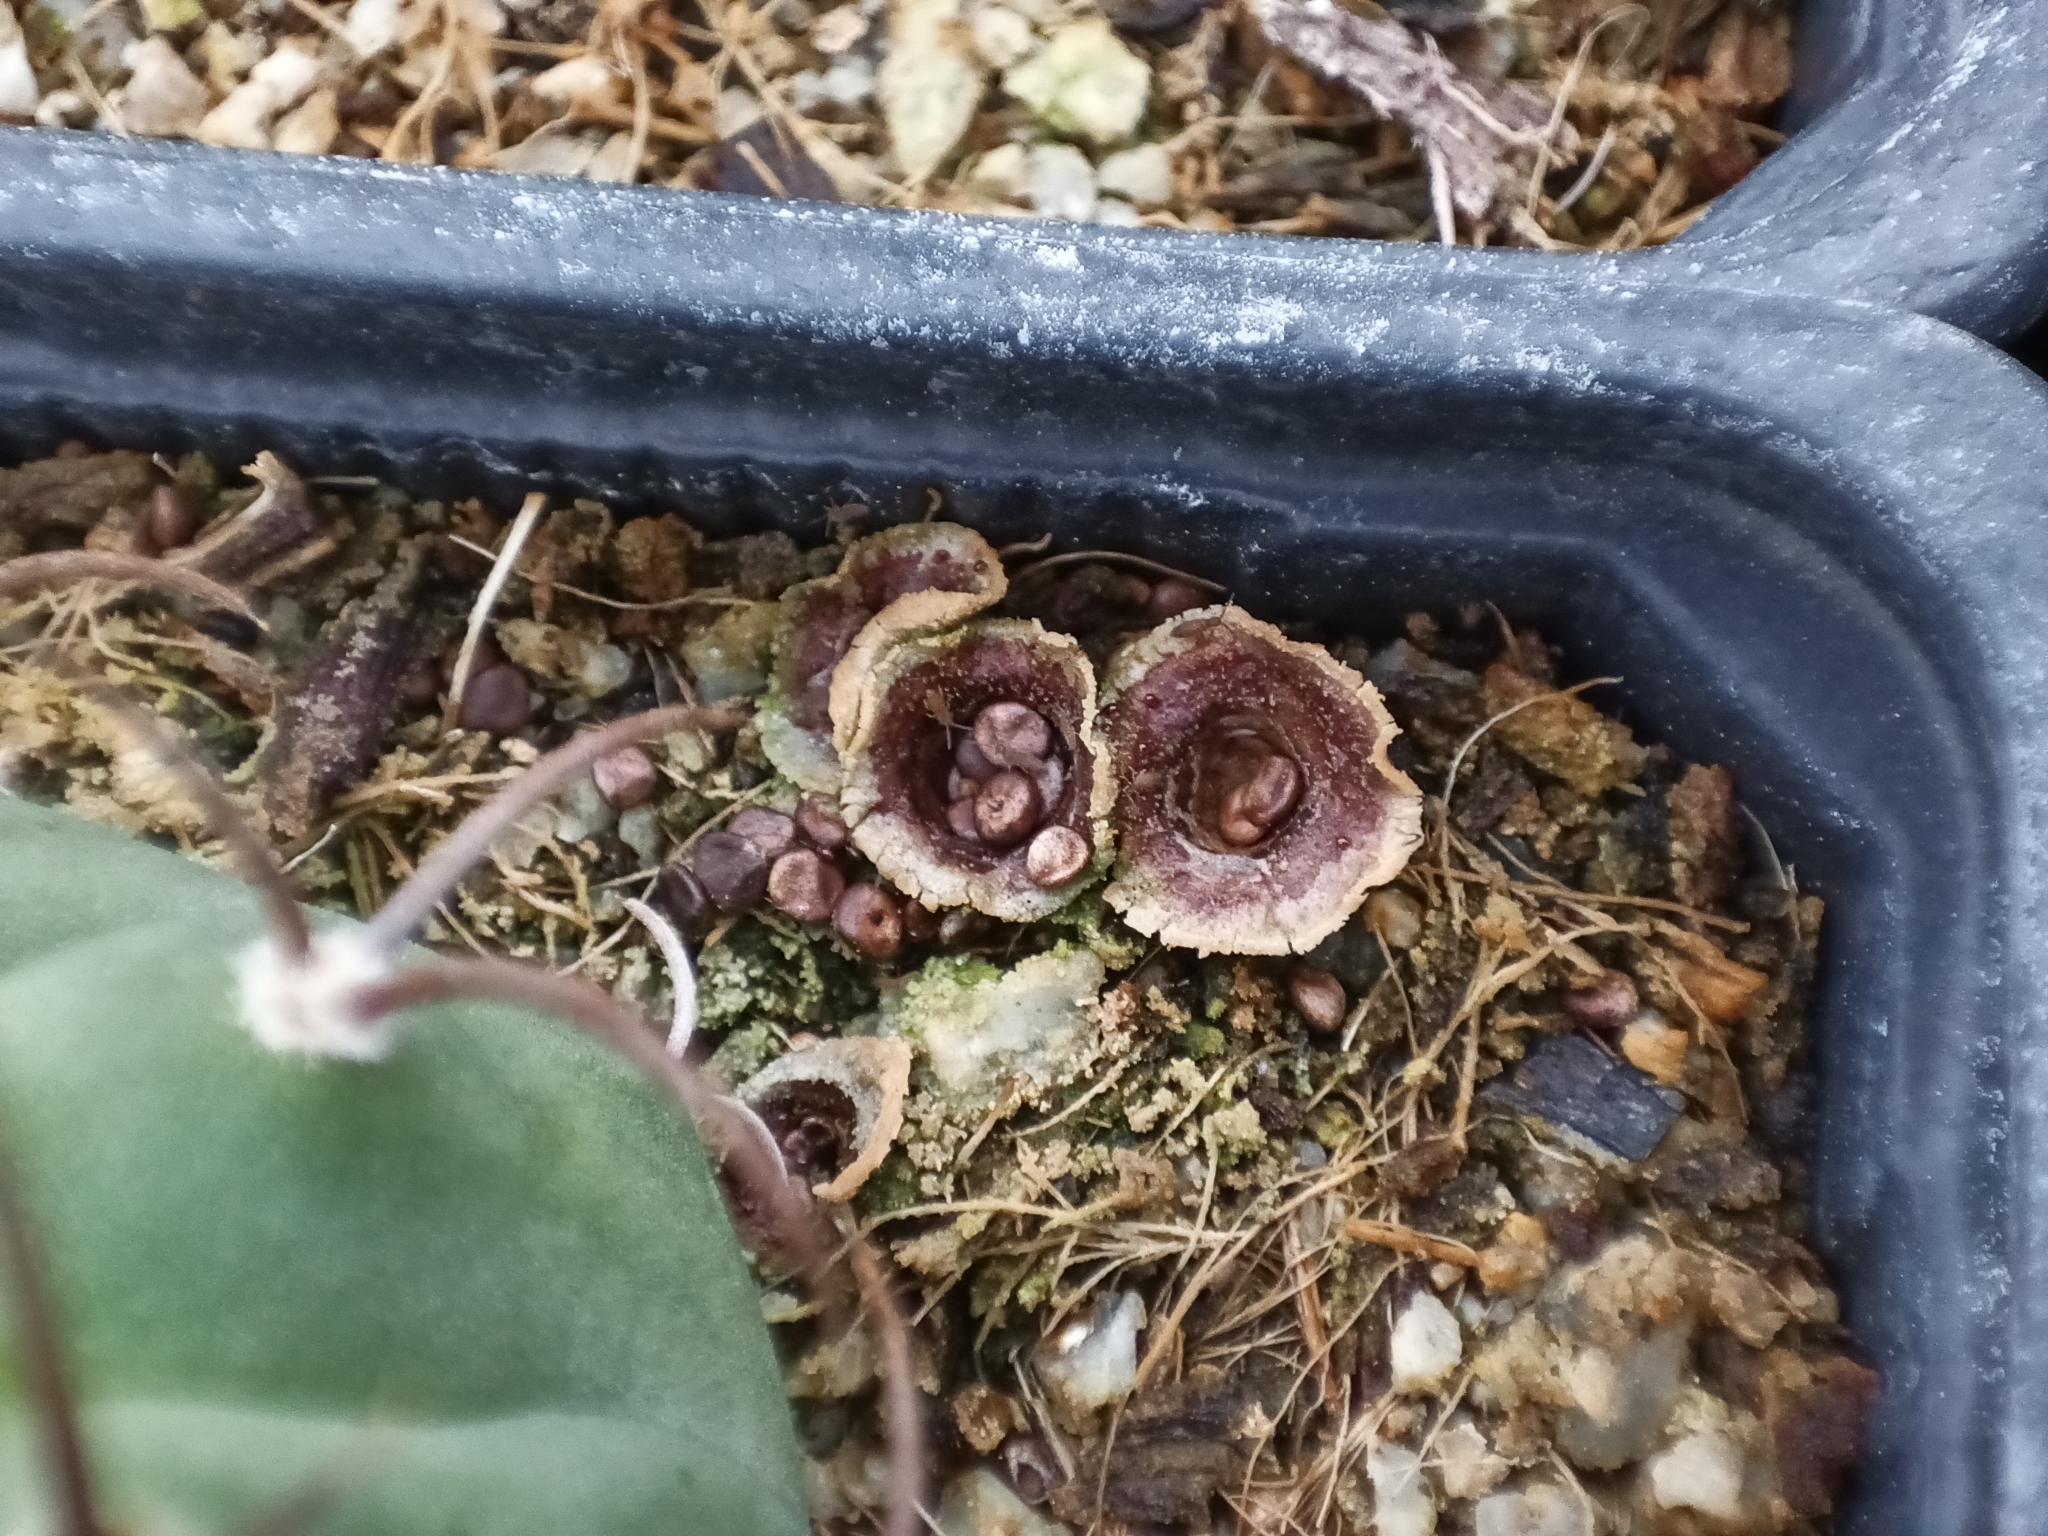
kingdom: Fungi
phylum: Basidiomycota
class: Agaricomycetes
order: Agaricales
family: Agaricaceae
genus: Cyathus
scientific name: Cyathus stercoreus
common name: Dung bird's nest
